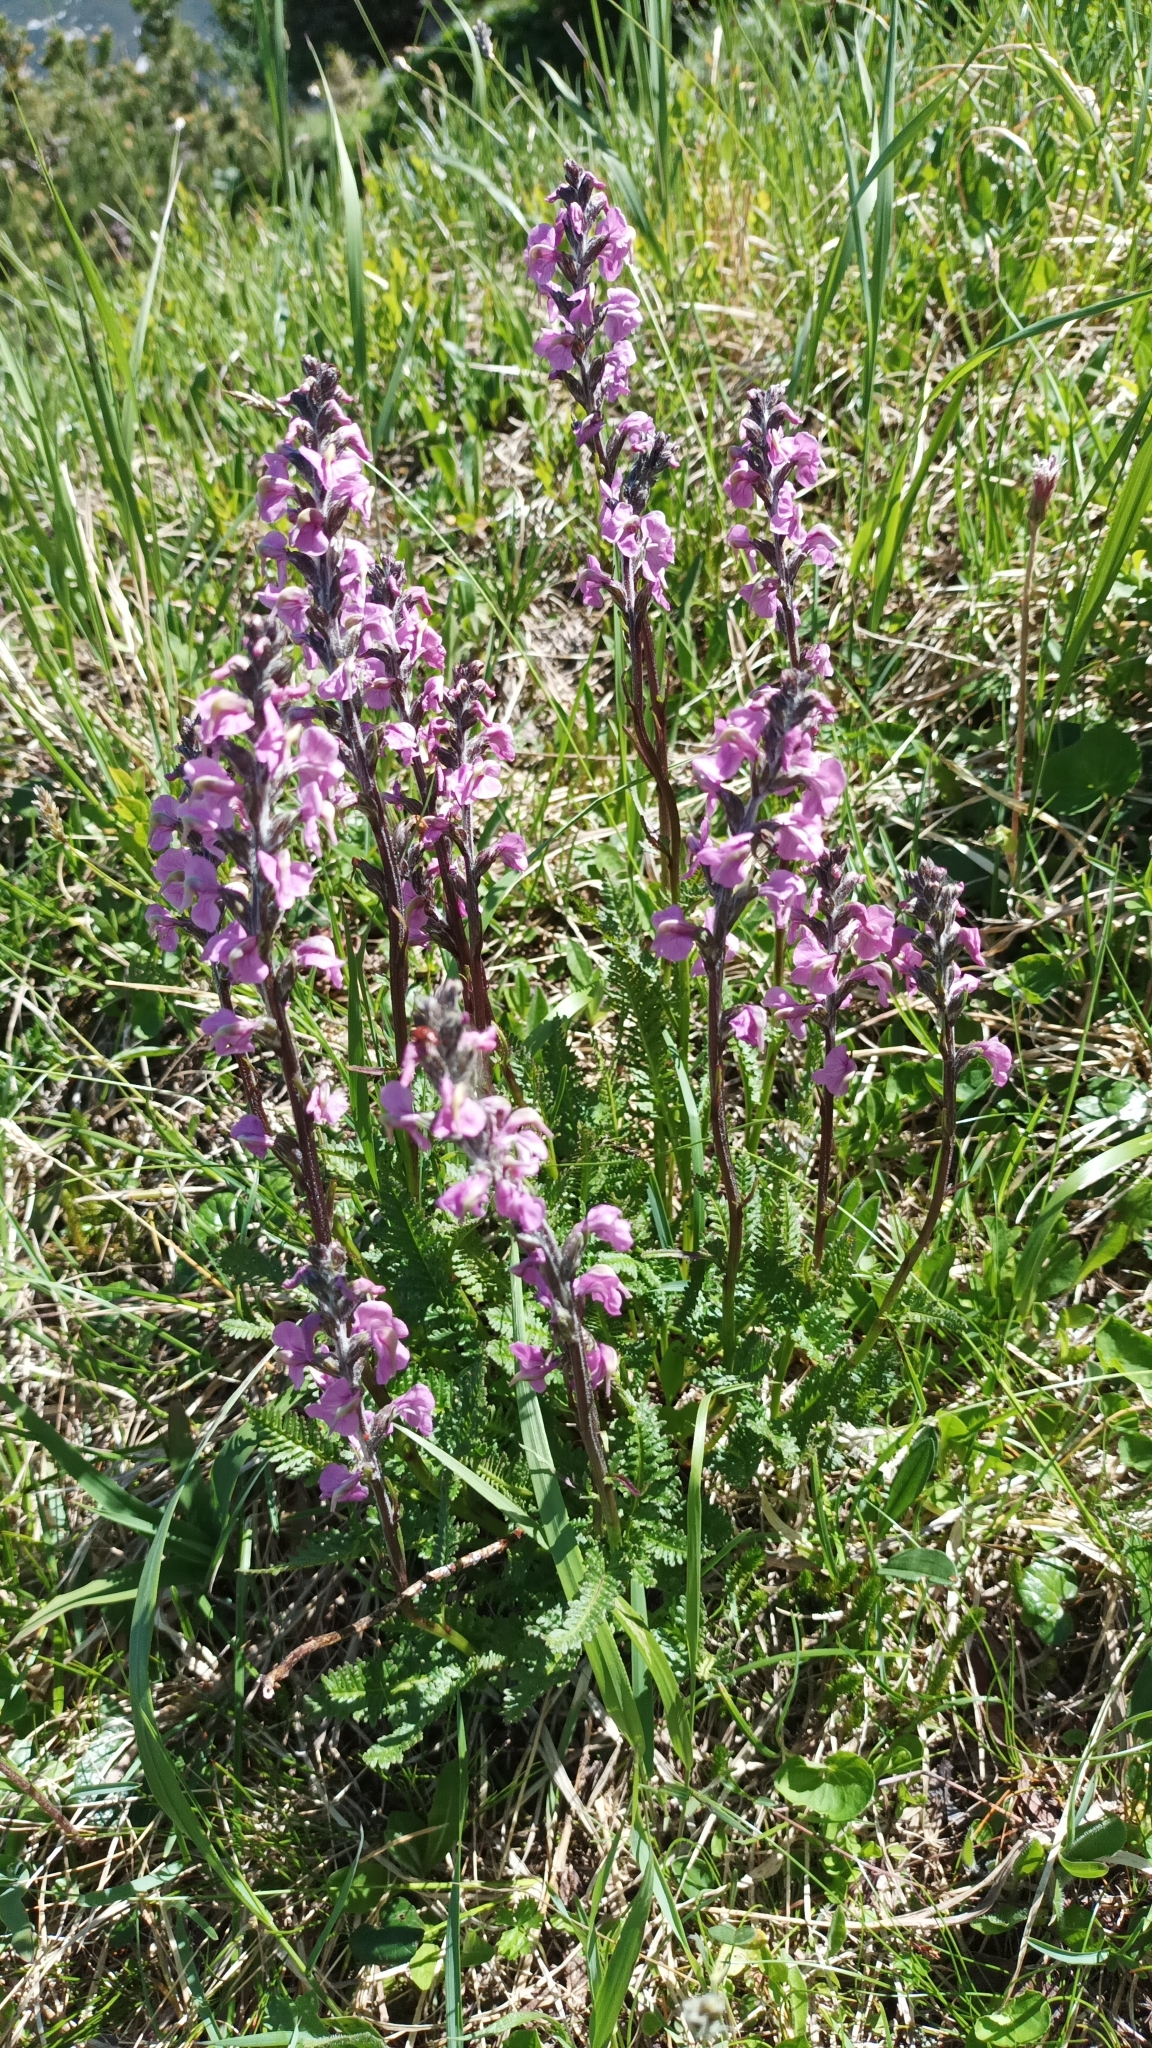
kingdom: Plantae
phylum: Tracheophyta
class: Magnoliopsida
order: Lamiales
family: Orobanchaceae
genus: Pedicularis
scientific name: Pedicularis rostratospicata
